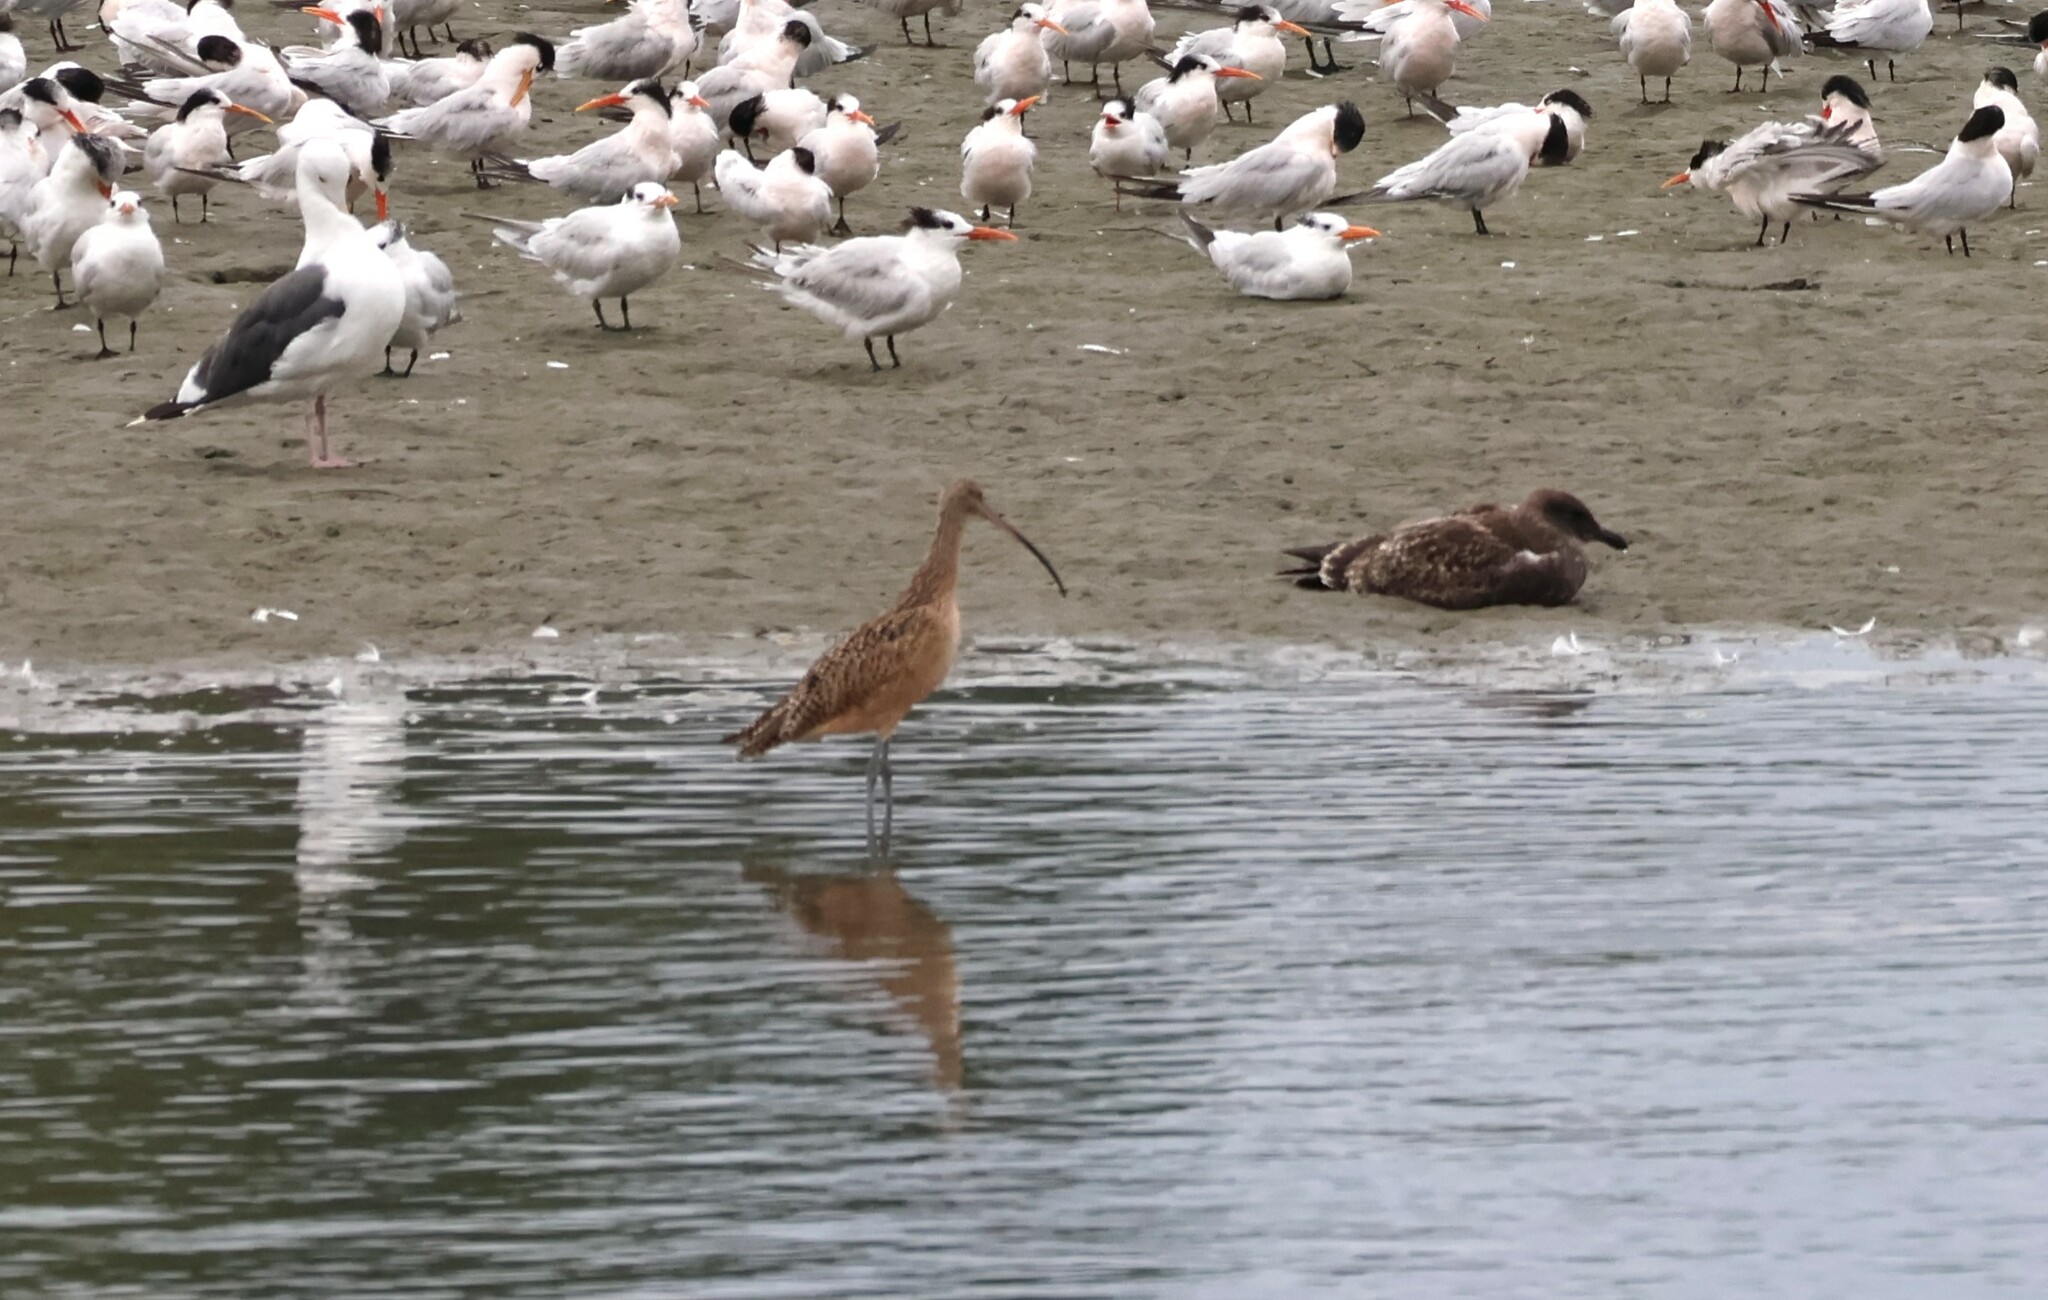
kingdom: Animalia
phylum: Chordata
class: Aves
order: Charadriiformes
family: Scolopacidae
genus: Numenius
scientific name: Numenius americanus
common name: Long-billed curlew
